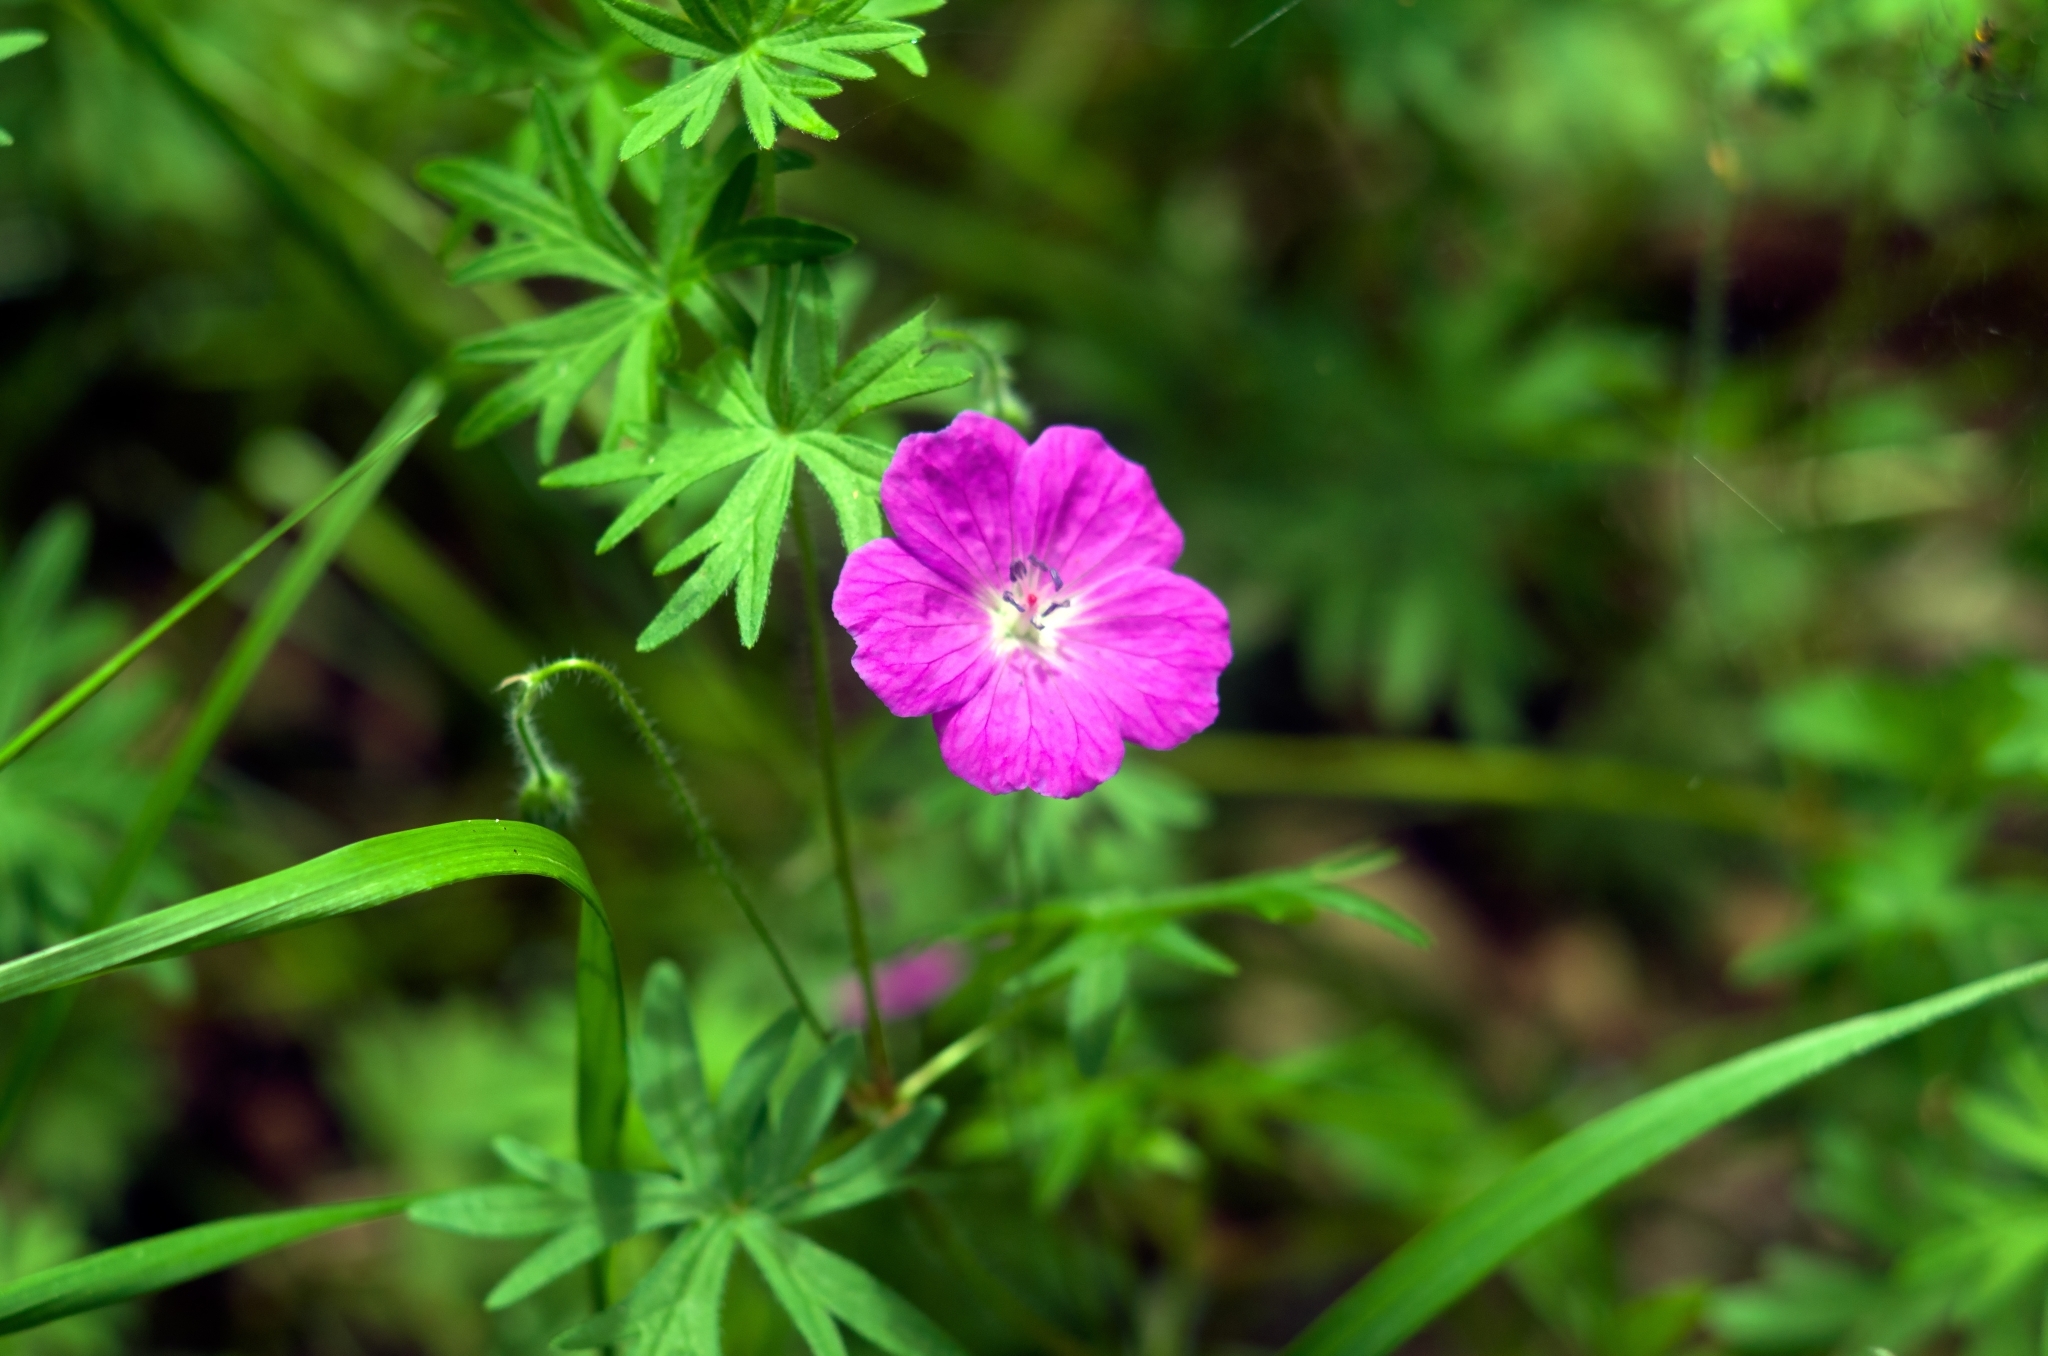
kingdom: Plantae
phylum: Tracheophyta
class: Magnoliopsida
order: Geraniales
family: Geraniaceae
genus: Geranium
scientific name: Geranium sanguineum
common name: Bloody crane's-bill
